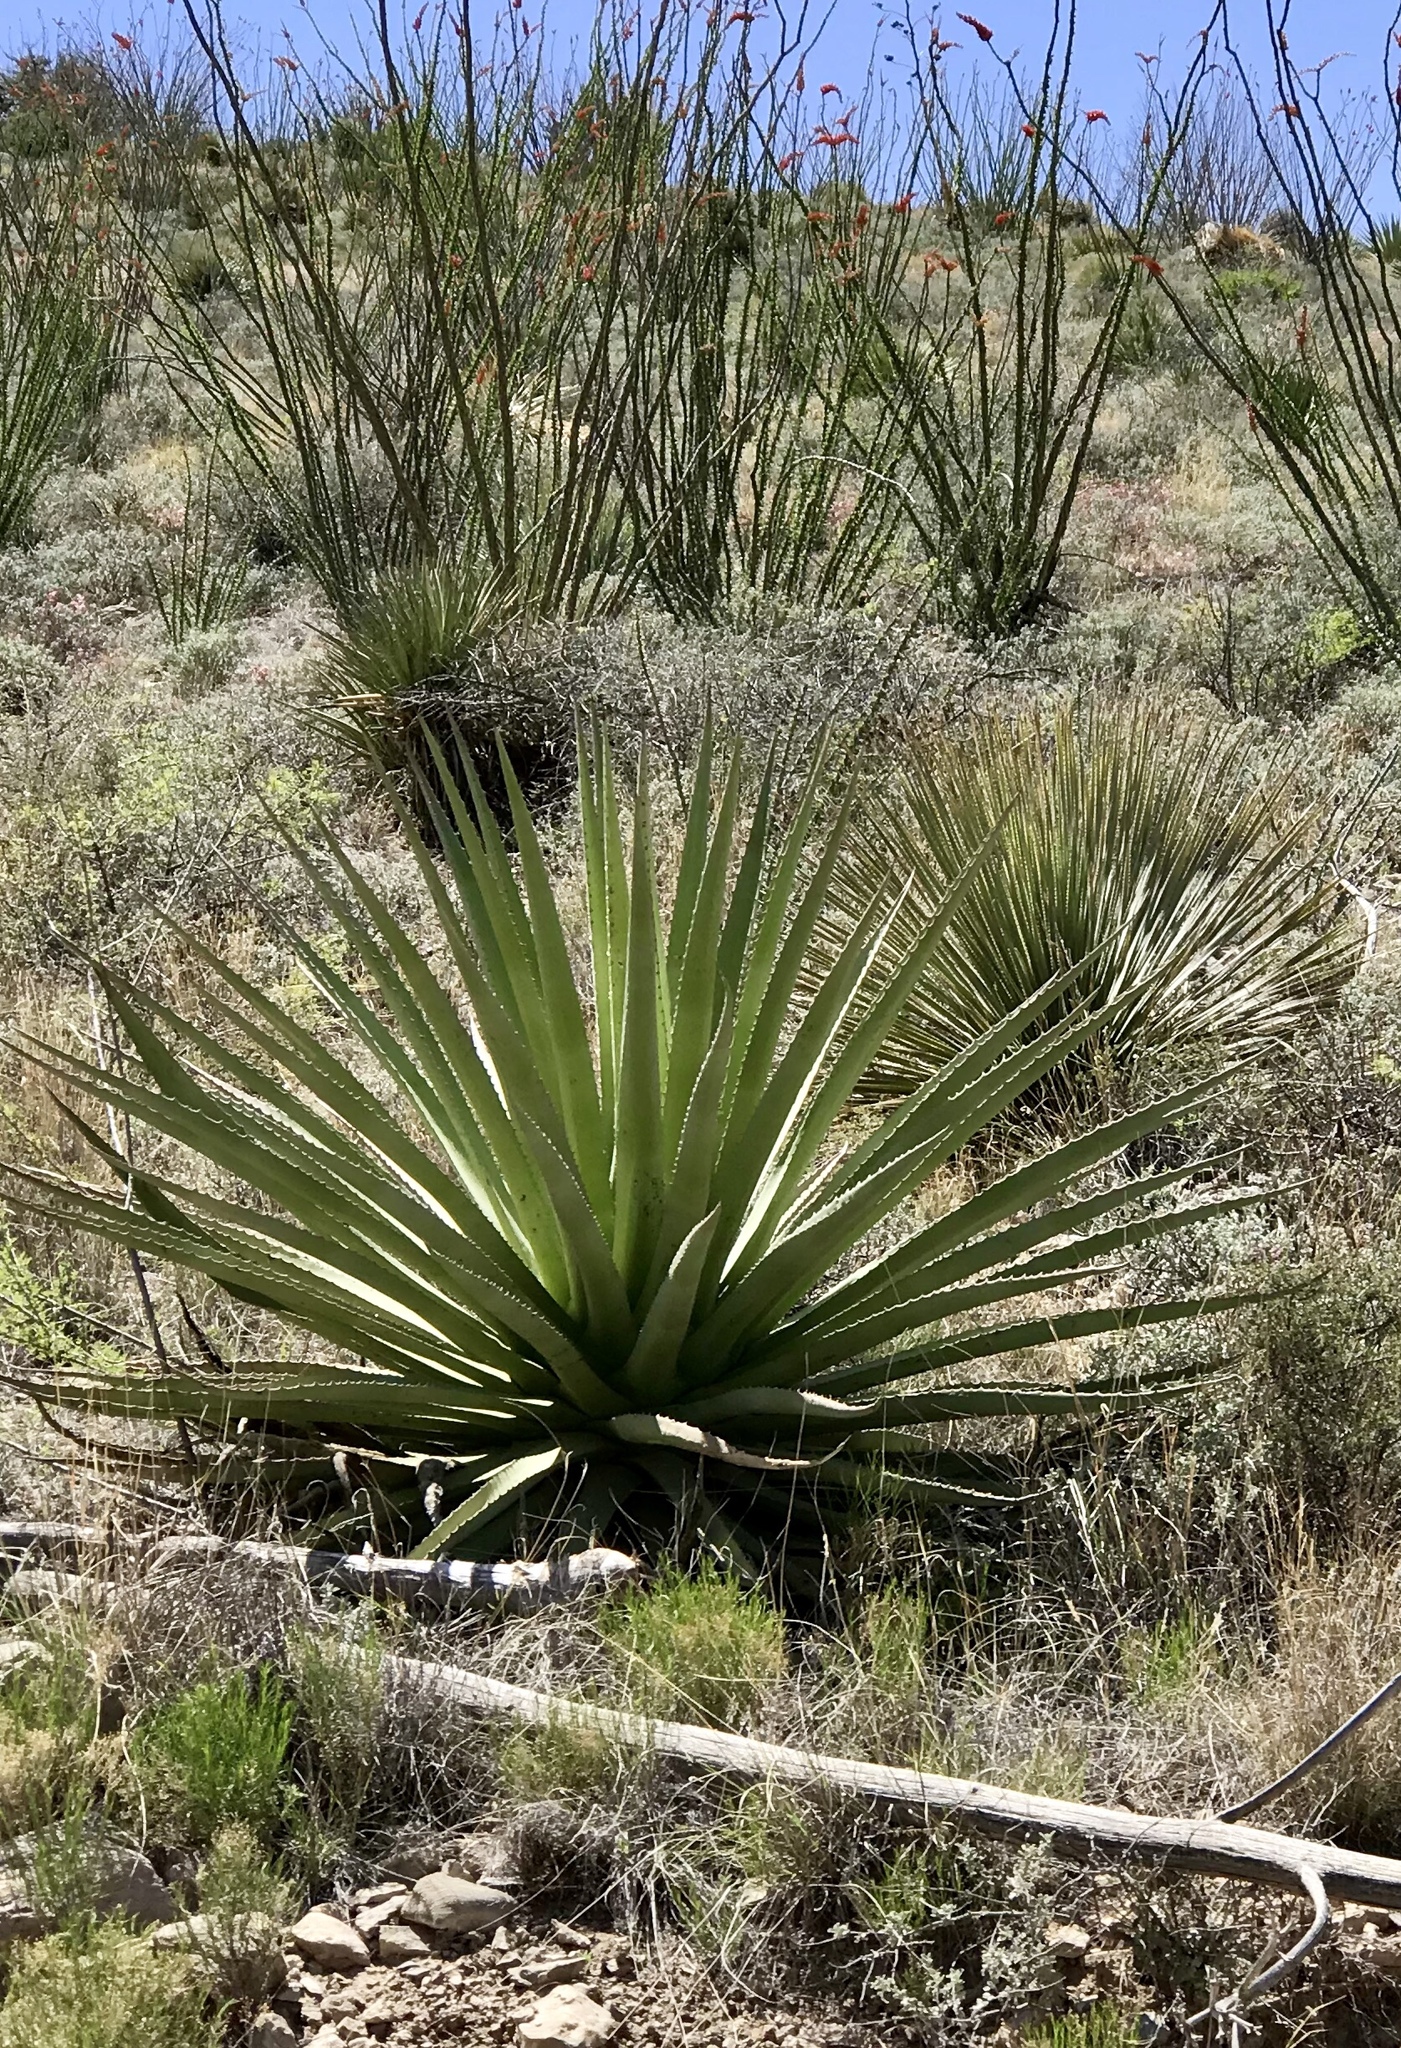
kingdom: Plantae
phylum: Tracheophyta
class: Liliopsida
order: Asparagales
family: Asparagaceae
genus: Agave
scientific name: Agave palmeri
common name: Palmer agave
